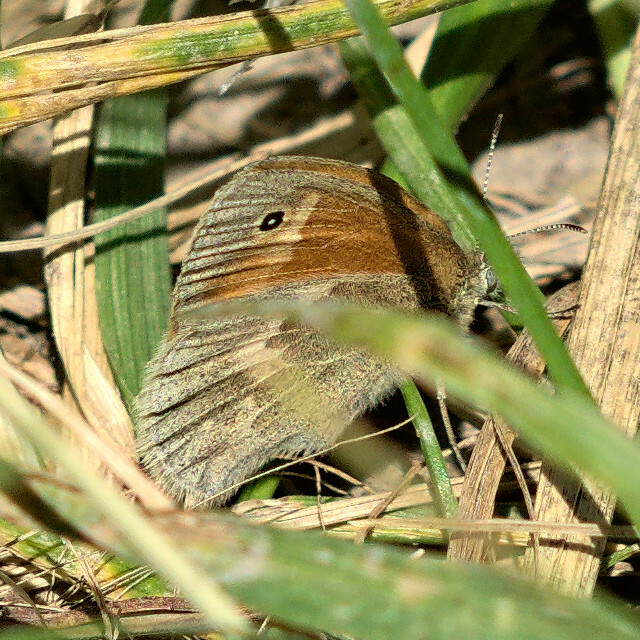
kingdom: Animalia
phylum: Arthropoda
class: Insecta
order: Lepidoptera
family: Nymphalidae
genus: Coenonympha
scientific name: Coenonympha california
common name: Common ringlet
